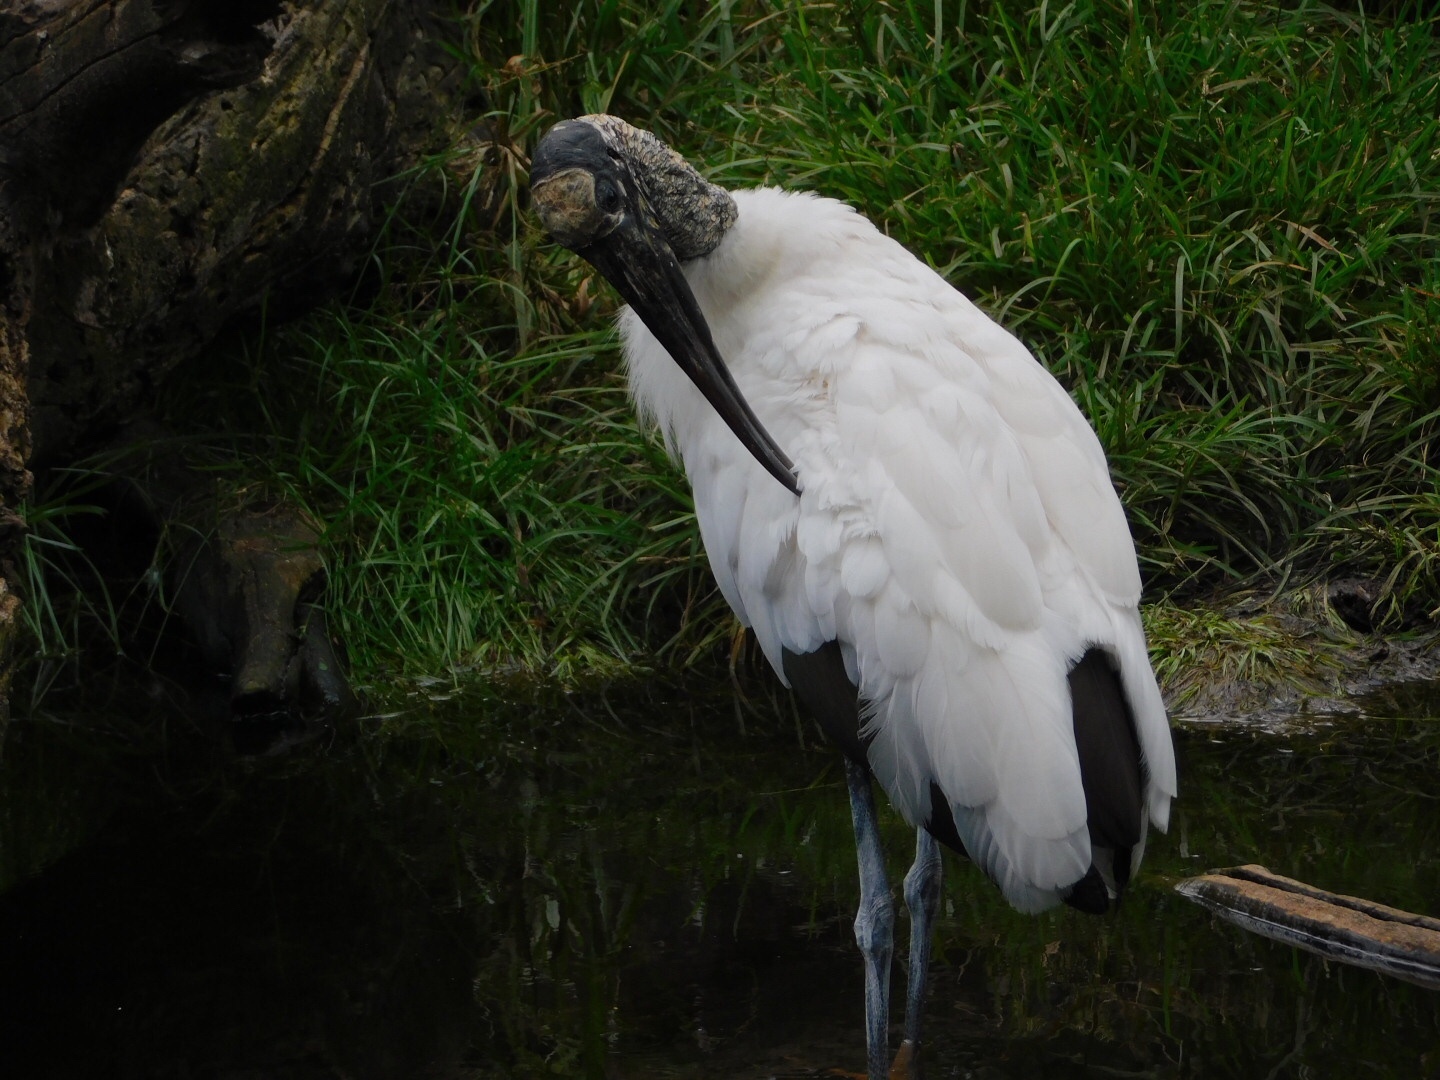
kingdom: Animalia
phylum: Chordata
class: Aves
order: Ciconiiformes
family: Ciconiidae
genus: Mycteria
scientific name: Mycteria americana
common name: Wood stork
